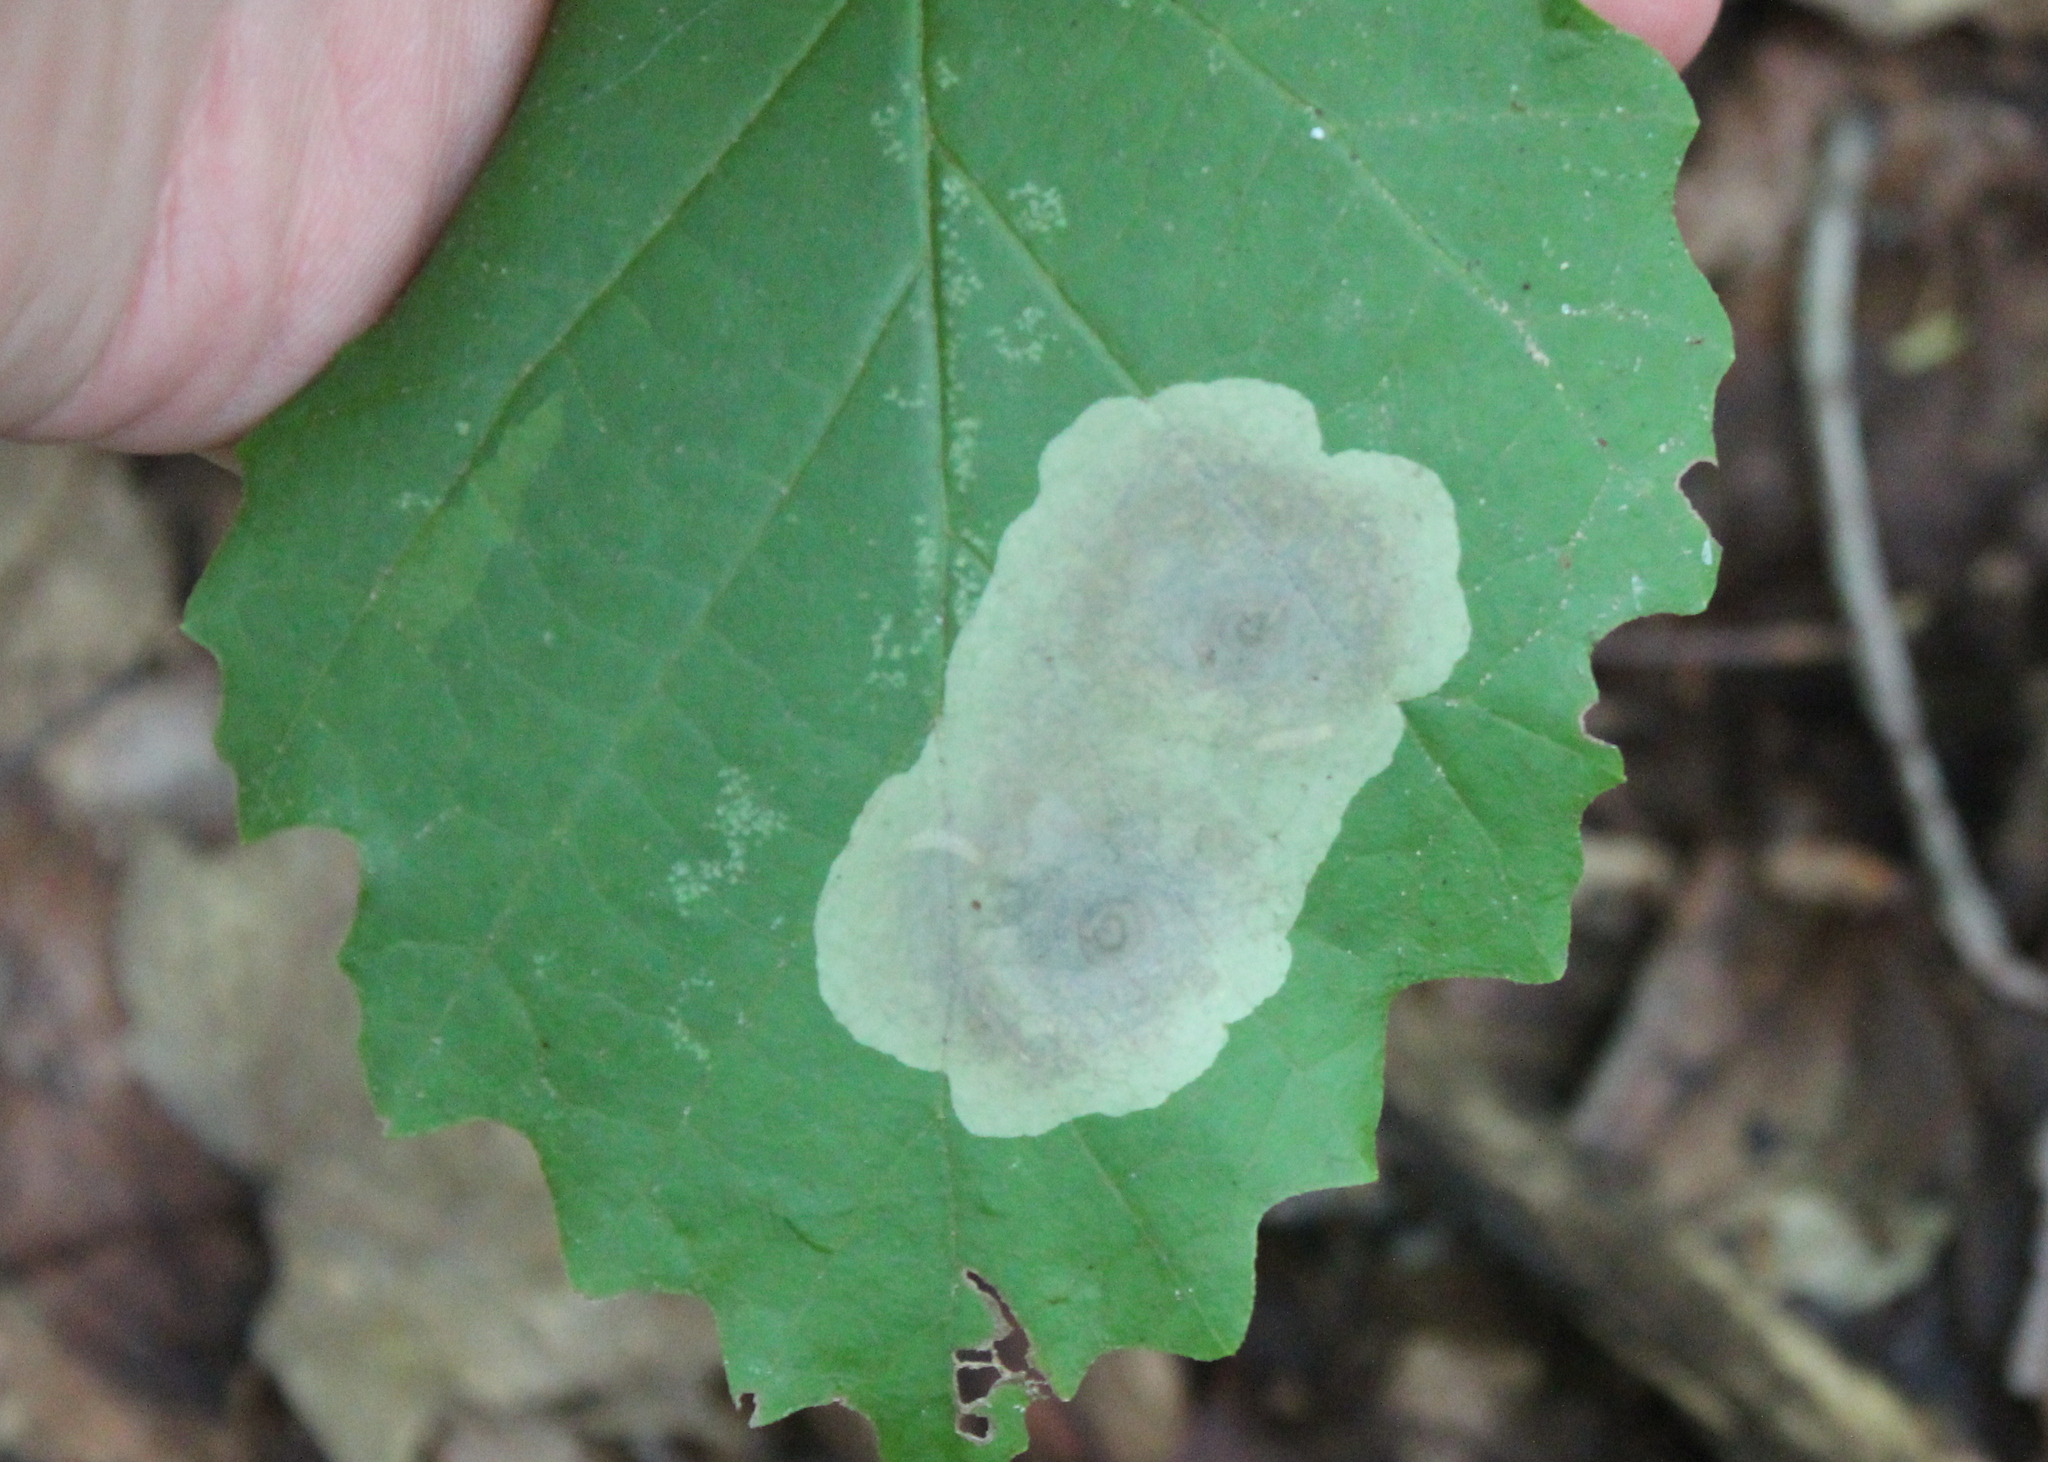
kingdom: Animalia
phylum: Arthropoda
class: Insecta
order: Lepidoptera
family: Gracillariidae
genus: Cameraria
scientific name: Cameraria hamameliella
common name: Witchhazel leafminer
